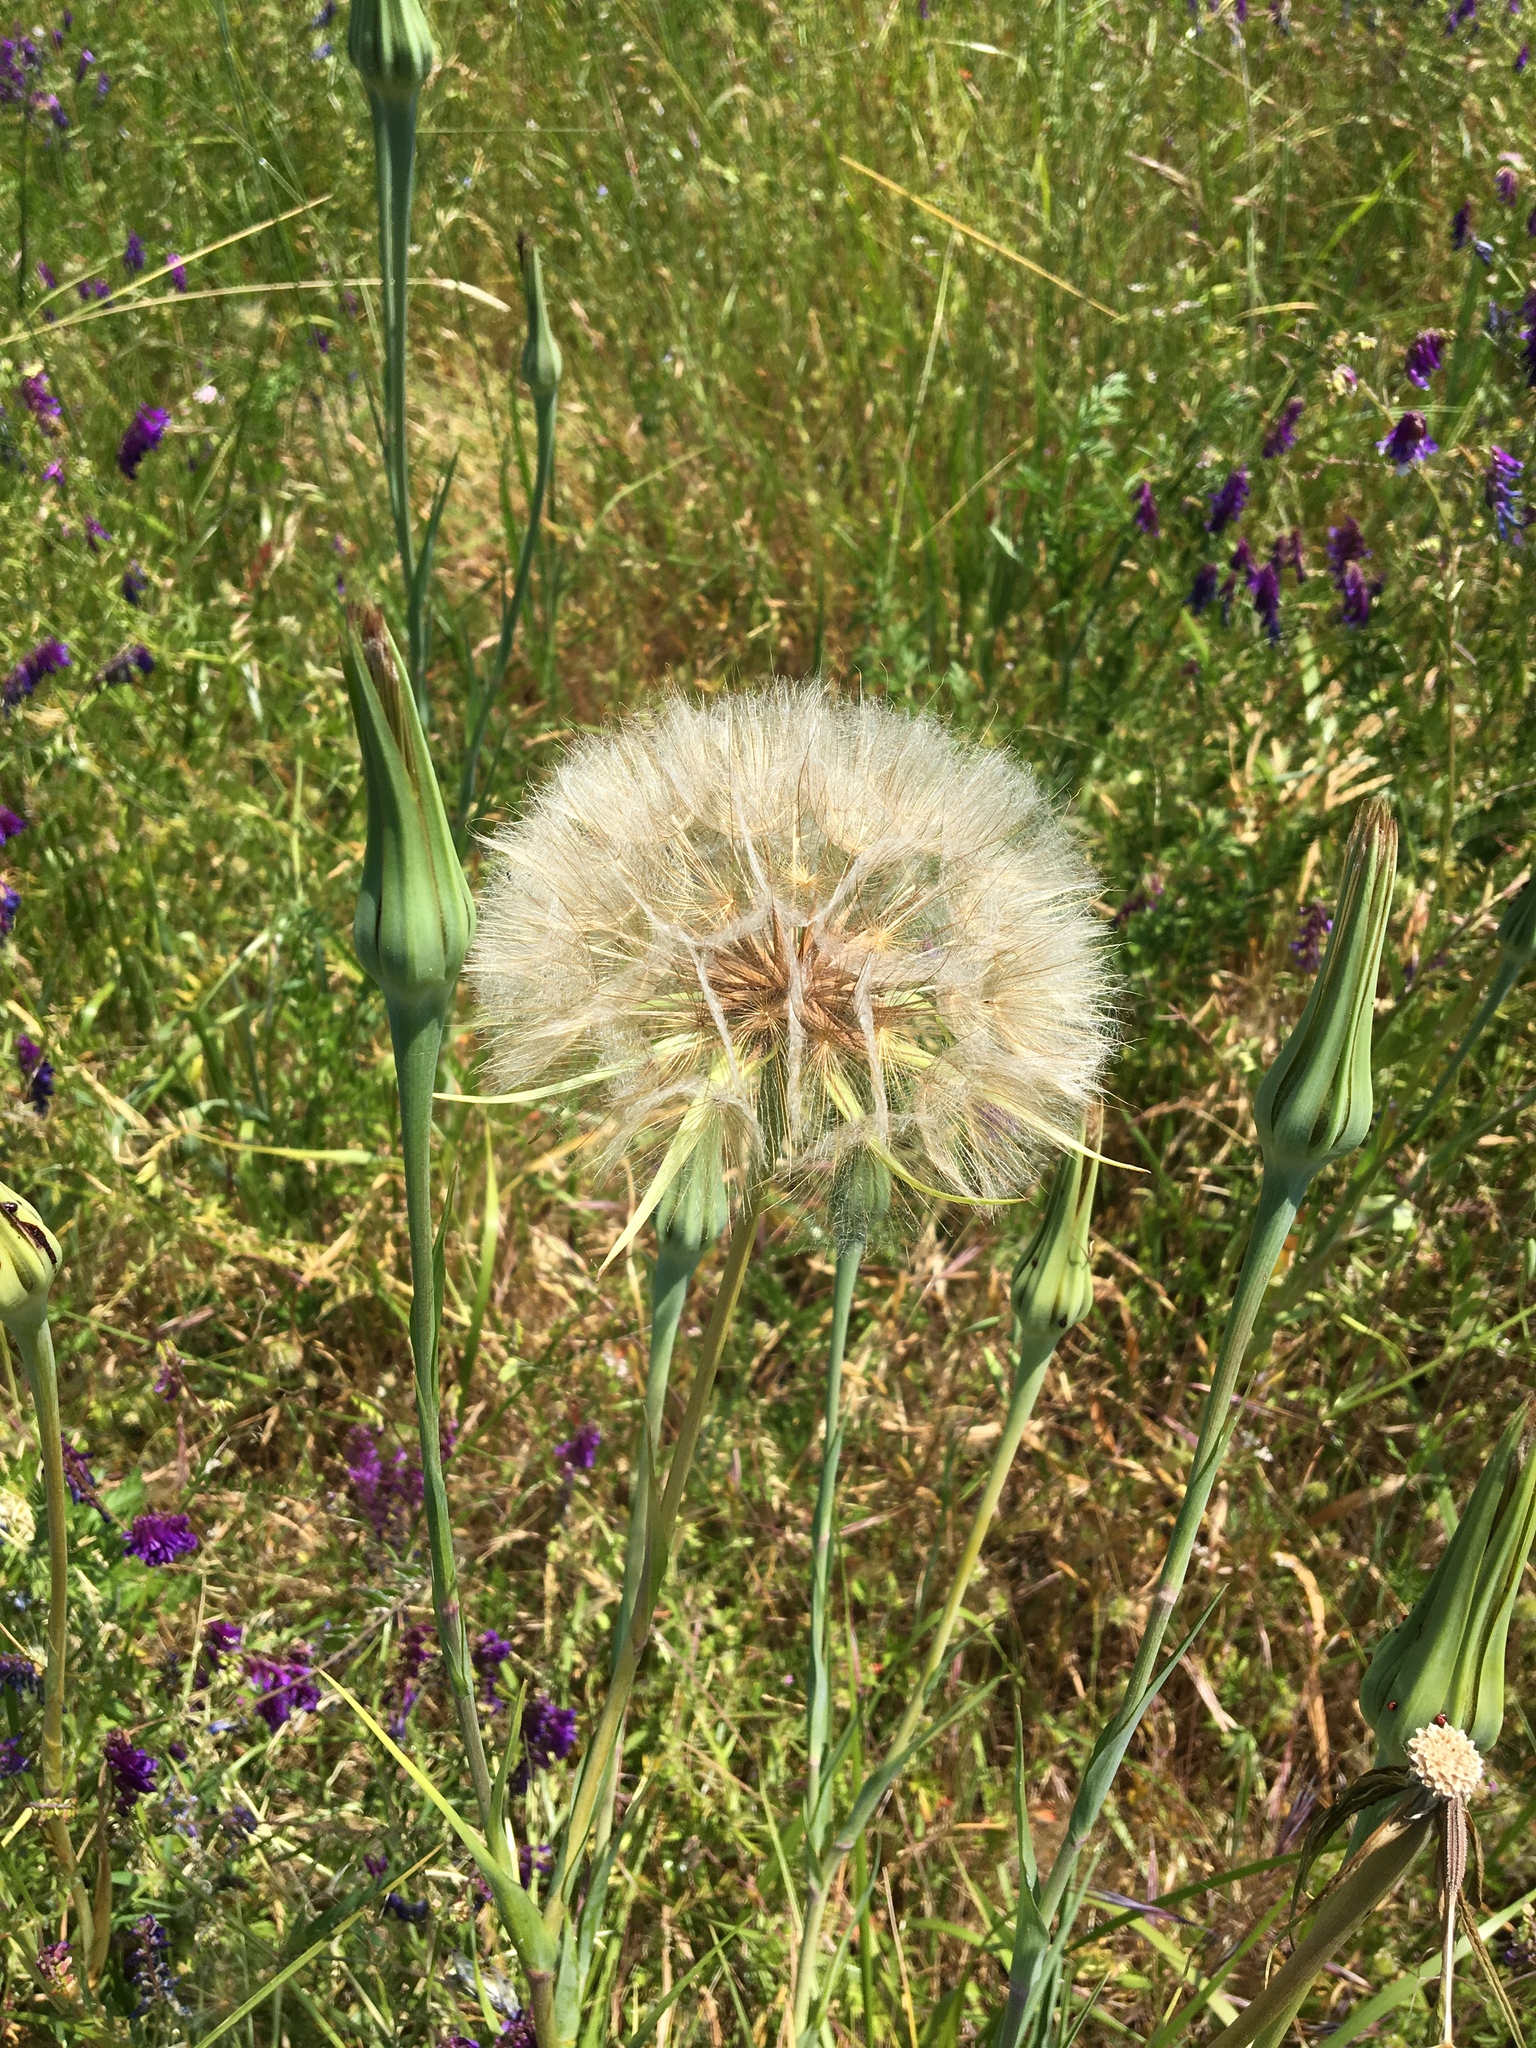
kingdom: Plantae
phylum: Tracheophyta
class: Magnoliopsida
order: Asterales
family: Asteraceae
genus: Tragopogon
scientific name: Tragopogon dubius
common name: Yellow salsify
